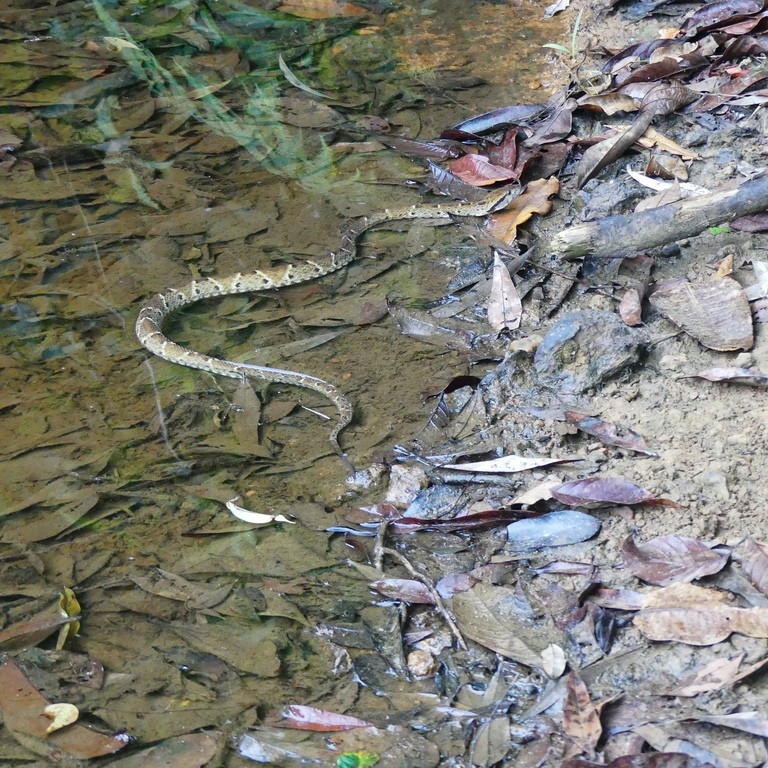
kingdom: Animalia
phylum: Chordata
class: Squamata
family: Viperidae
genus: Bothrops
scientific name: Bothrops atrox
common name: Common lancehead
